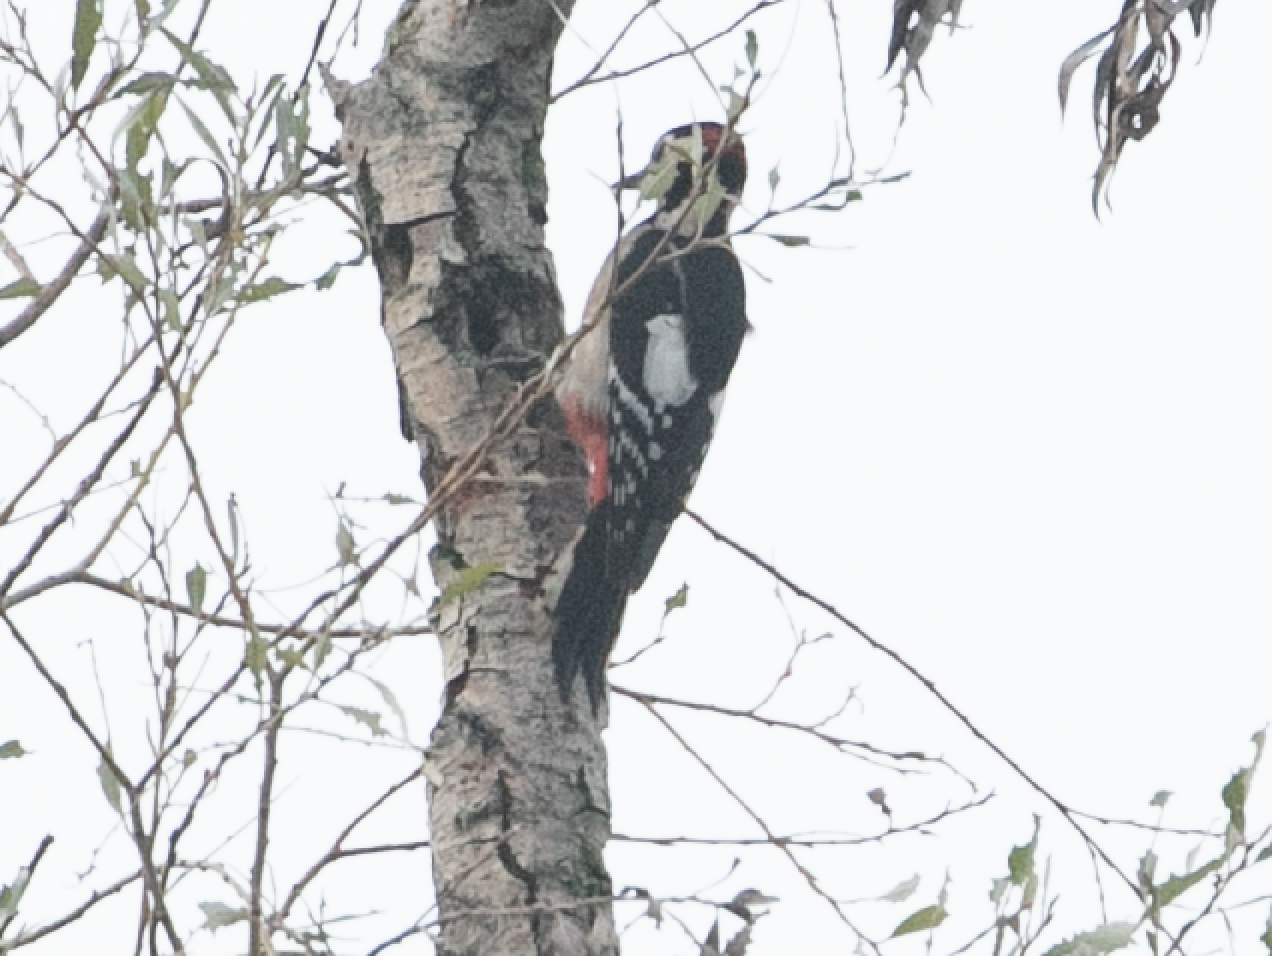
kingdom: Animalia
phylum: Chordata
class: Aves
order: Piciformes
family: Picidae
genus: Dendrocopos
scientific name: Dendrocopos major
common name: Great spotted woodpecker
